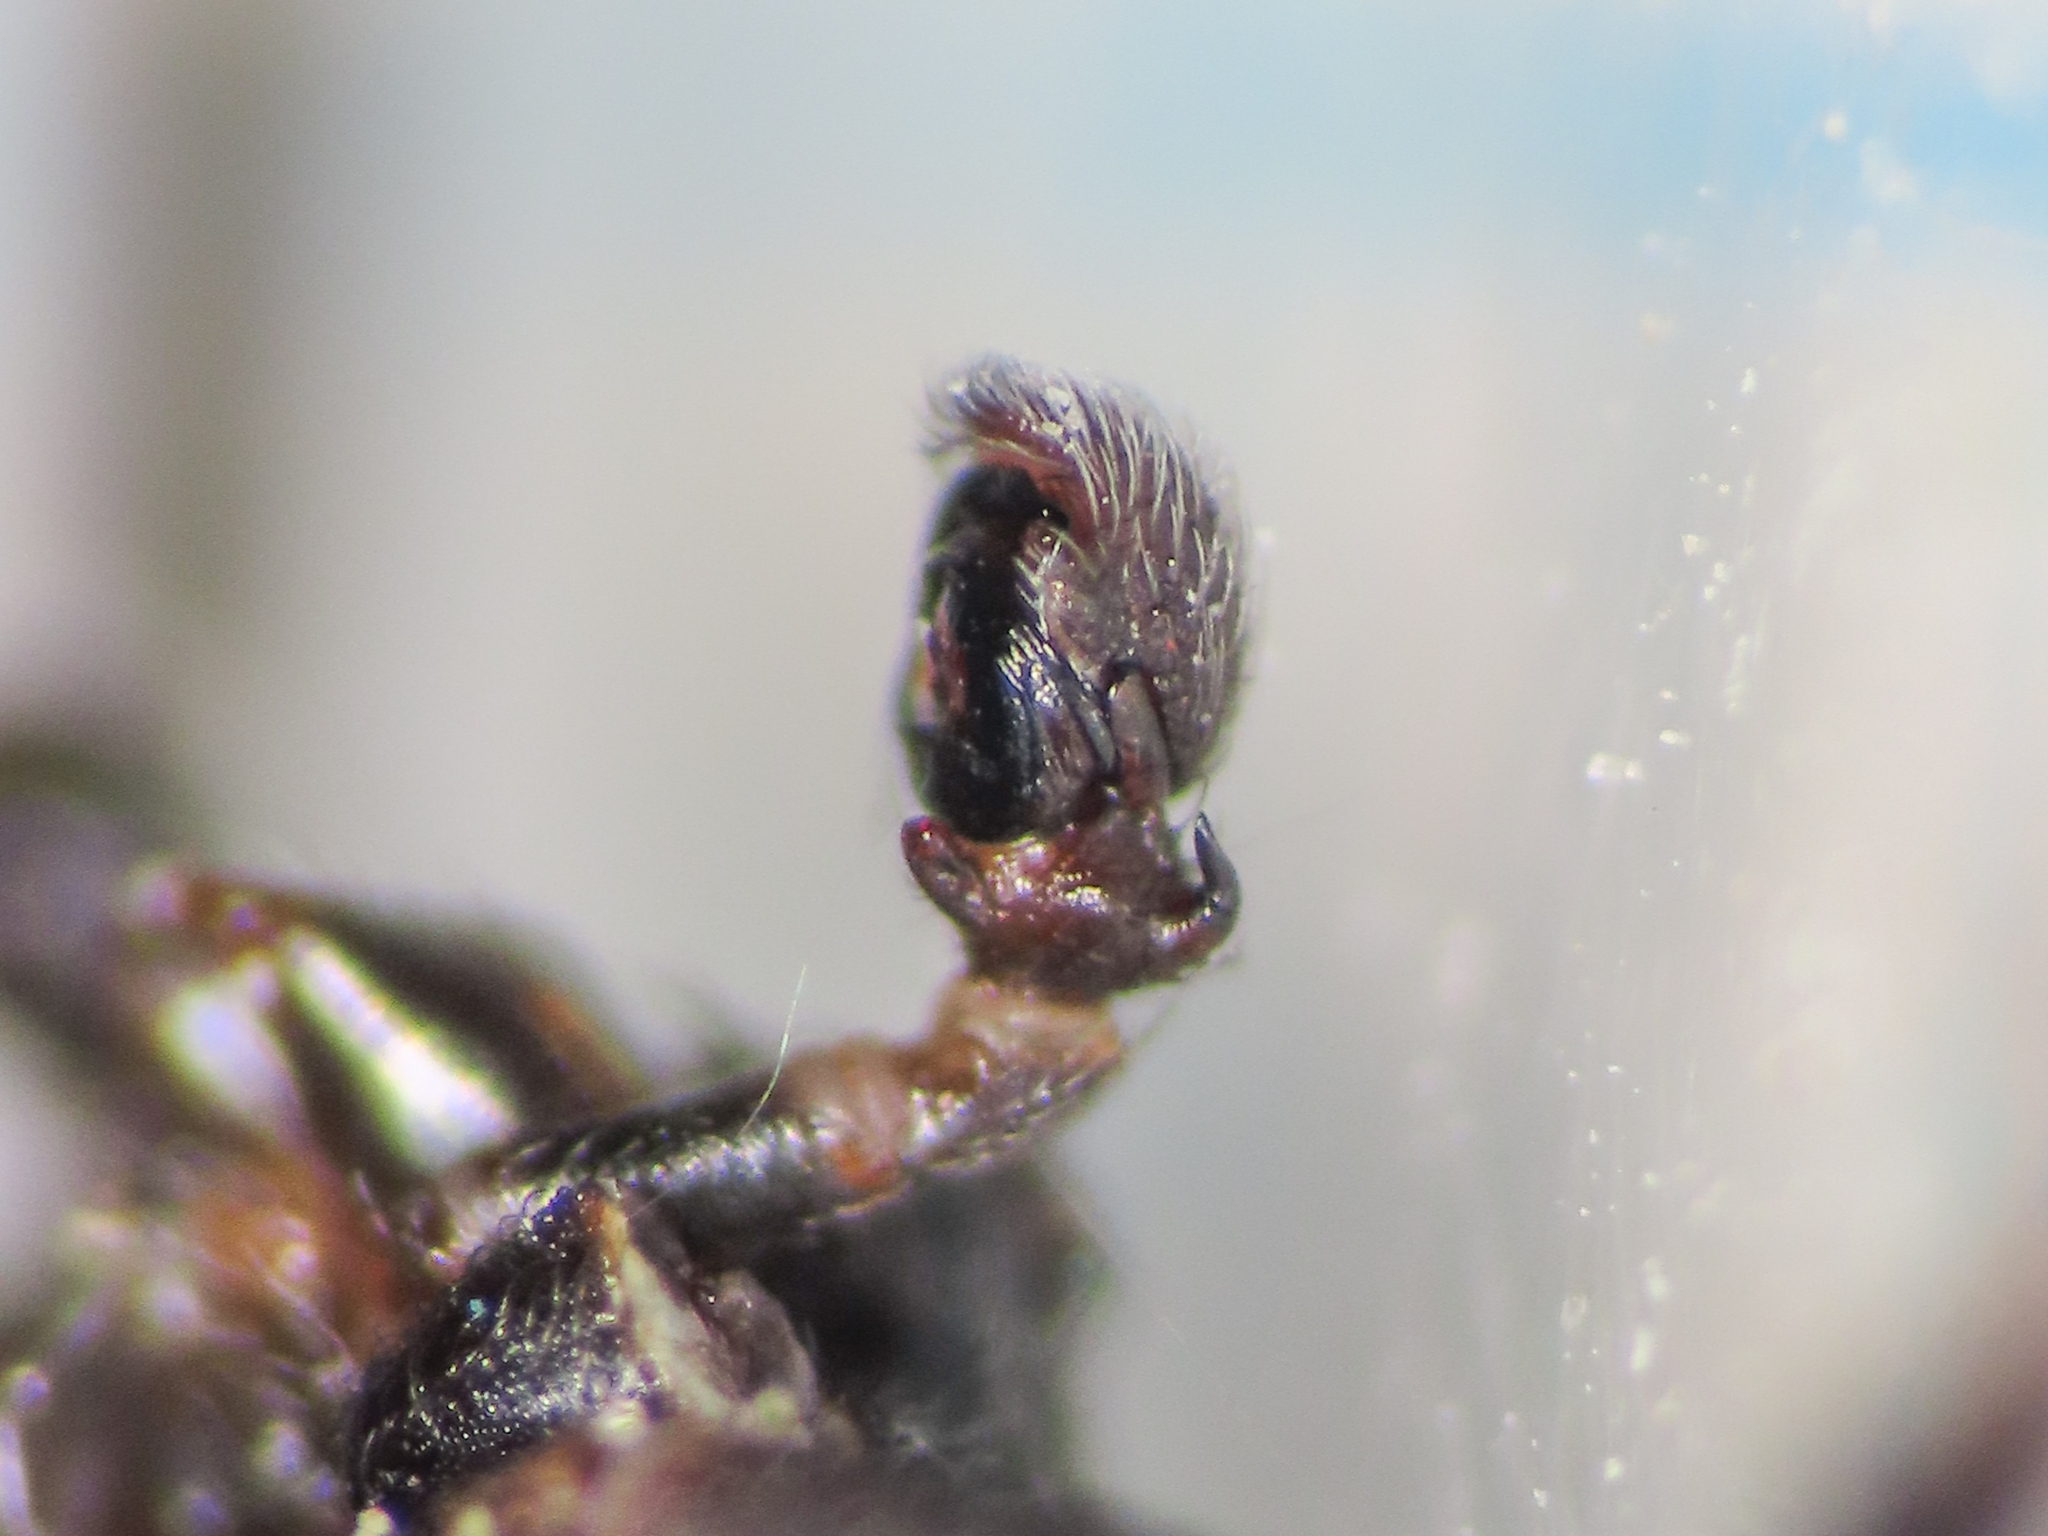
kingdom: Animalia
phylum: Arthropoda
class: Arachnida
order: Araneae
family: Thomisidae
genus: Ozyptila
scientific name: Ozyptila confluens
